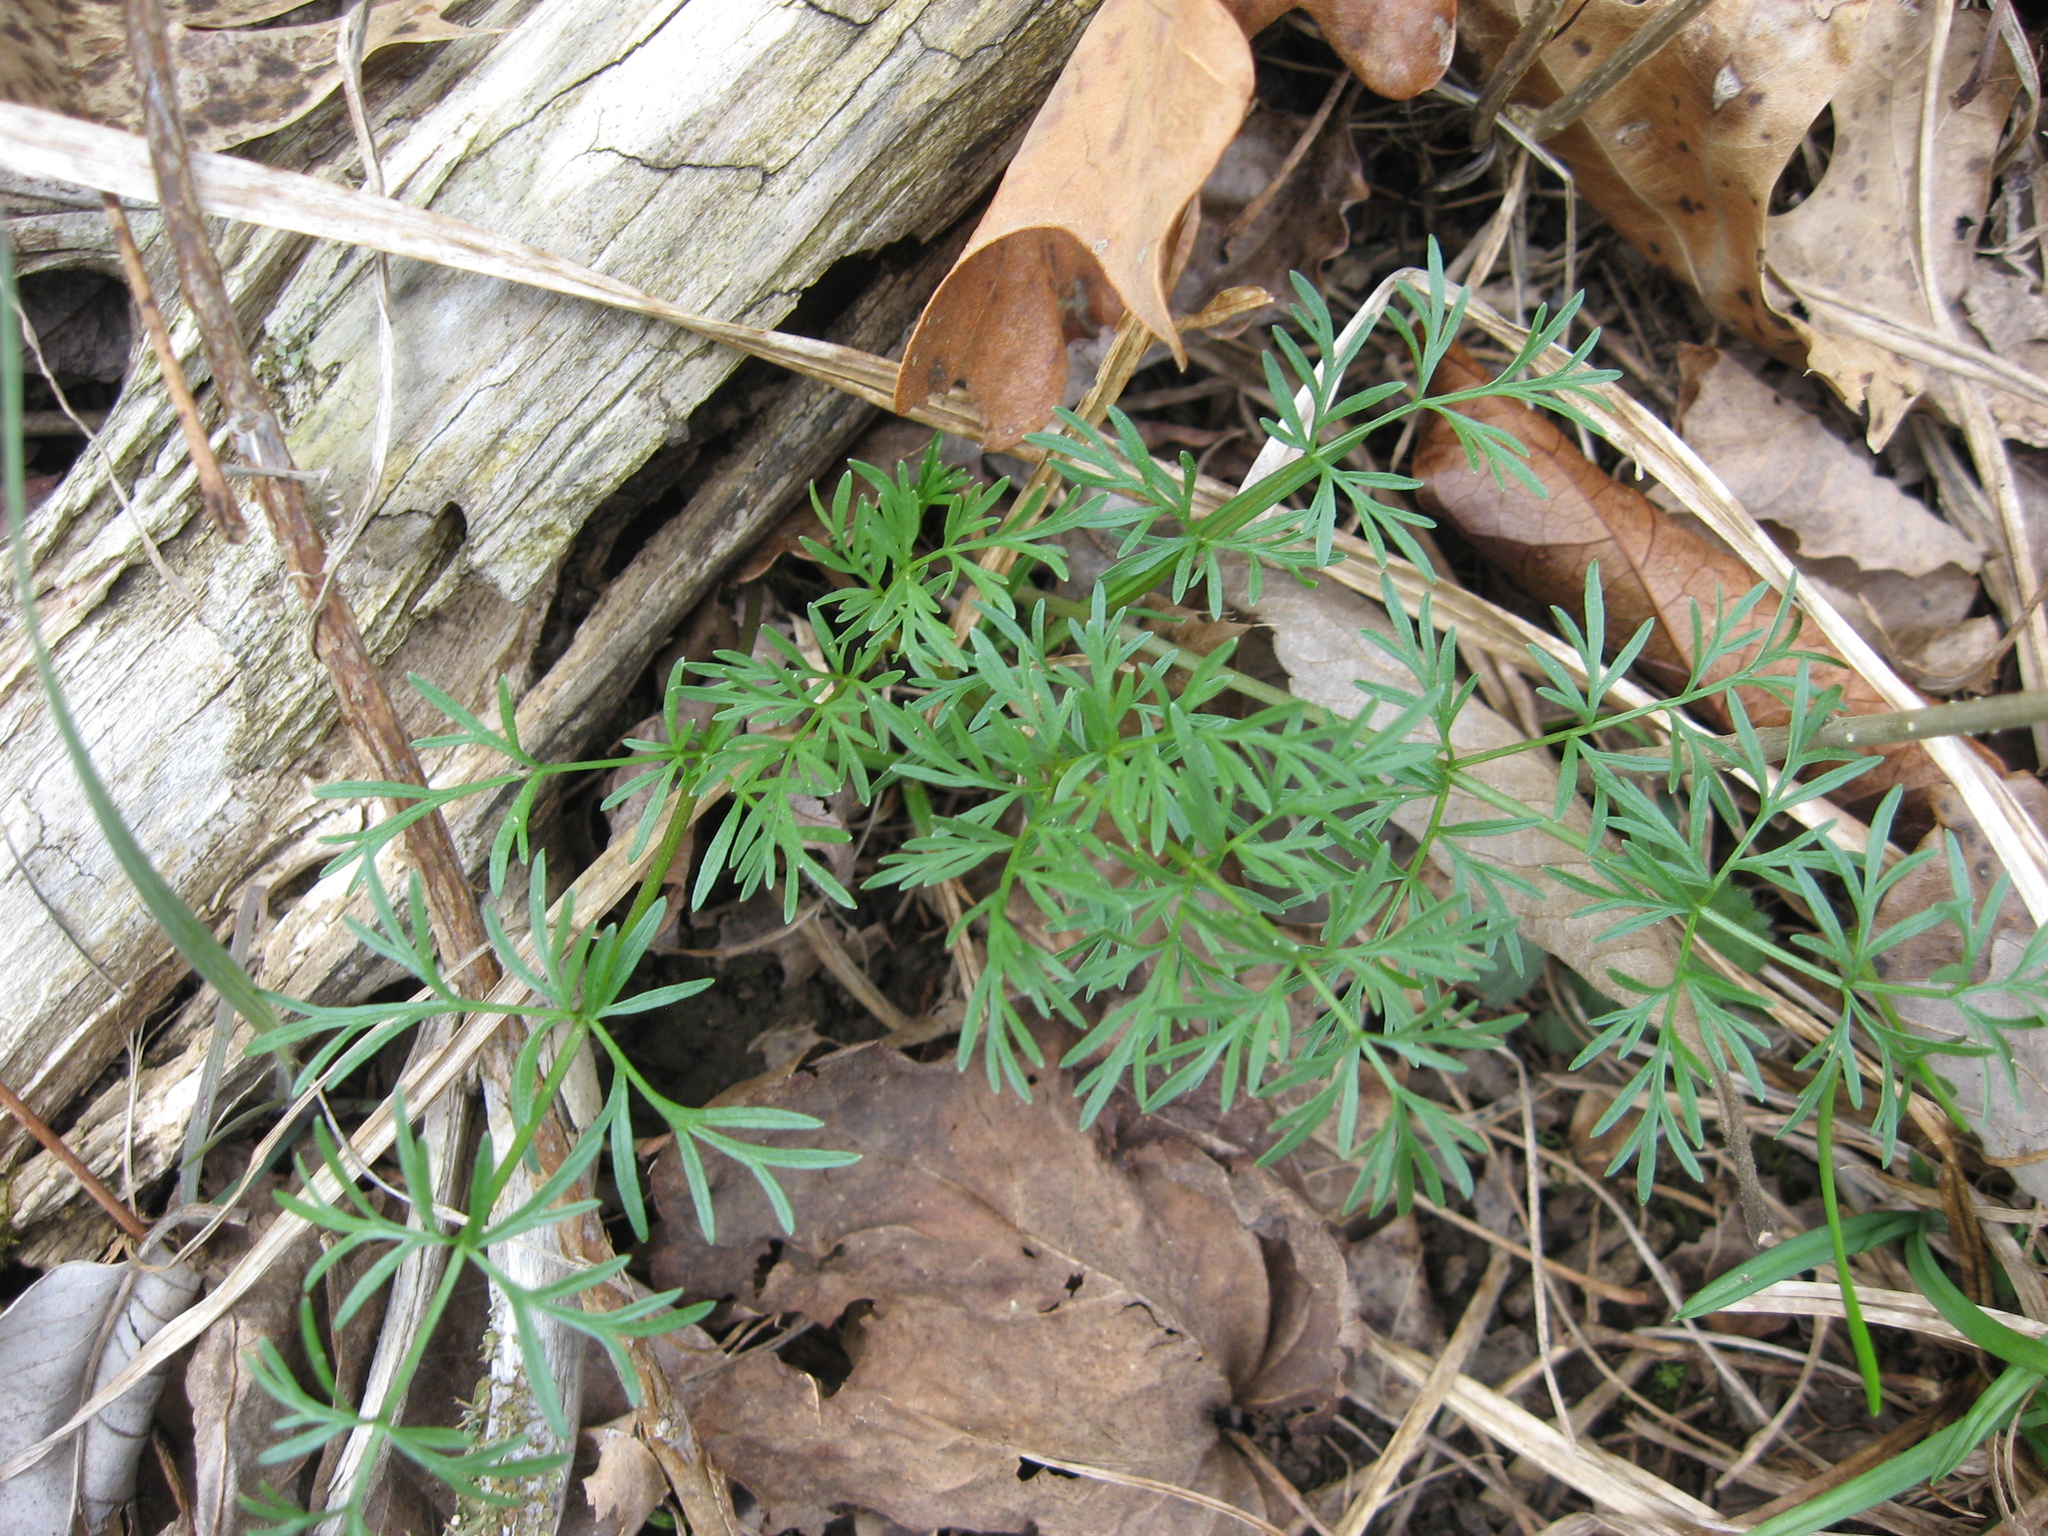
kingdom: Plantae
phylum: Tracheophyta
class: Magnoliopsida
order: Apiales
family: Apiaceae
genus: Perideridia
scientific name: Perideridia americana
